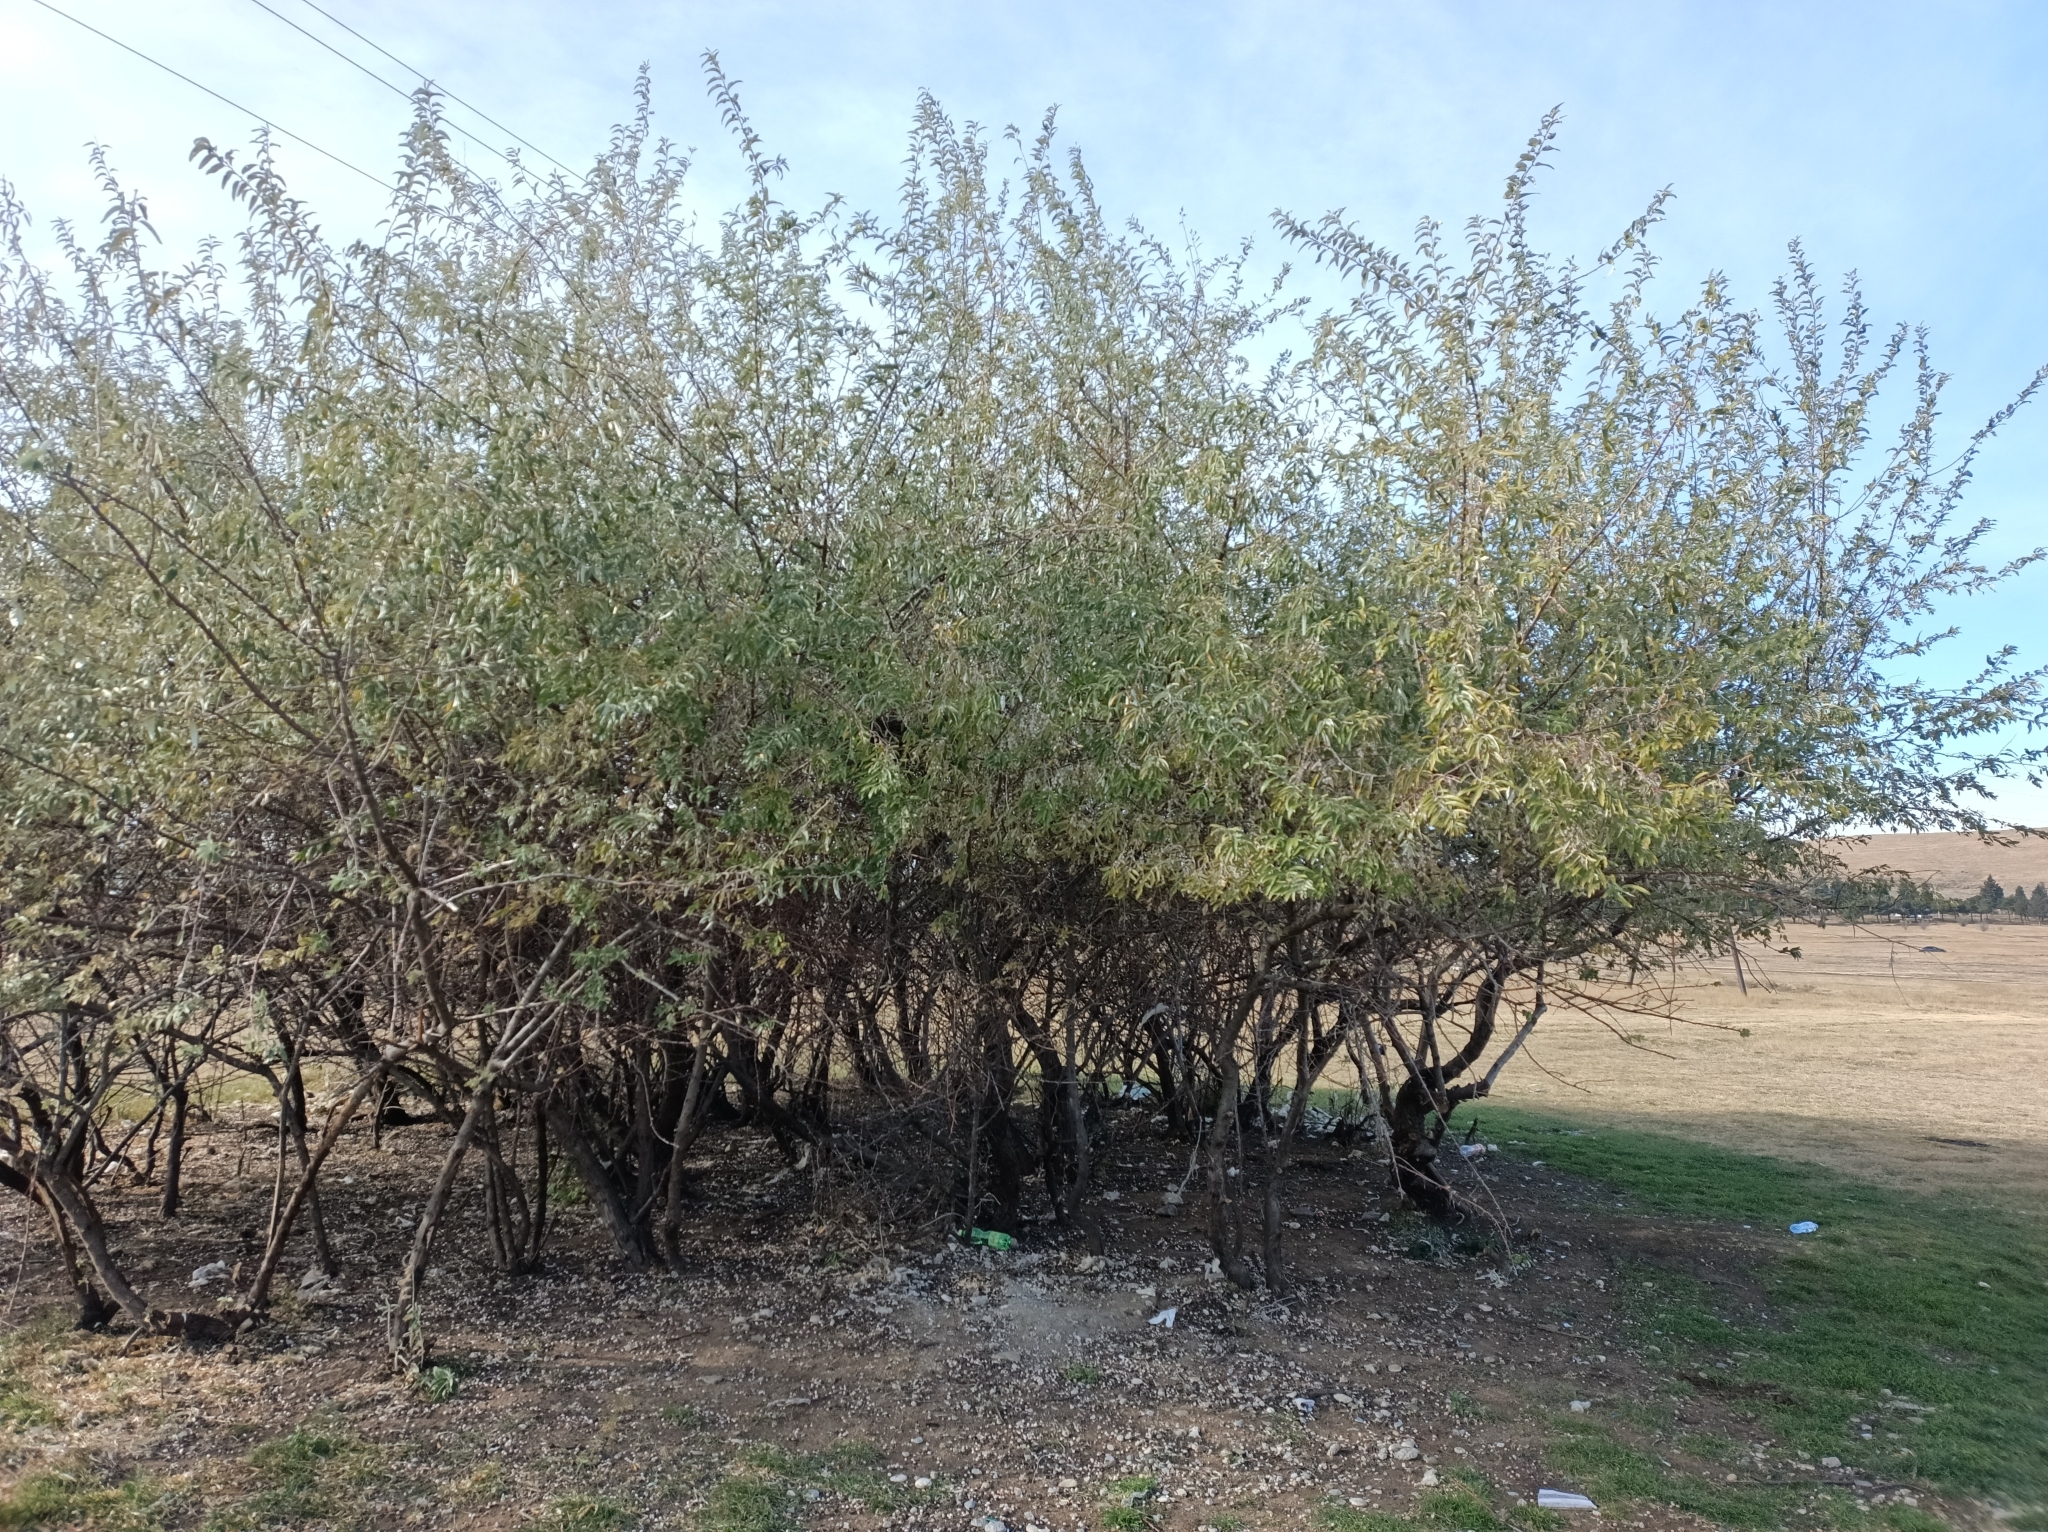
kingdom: Plantae
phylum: Tracheophyta
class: Magnoliopsida
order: Rosales
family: Elaeagnaceae
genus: Elaeagnus
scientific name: Elaeagnus angustifolia
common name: Russian olive
